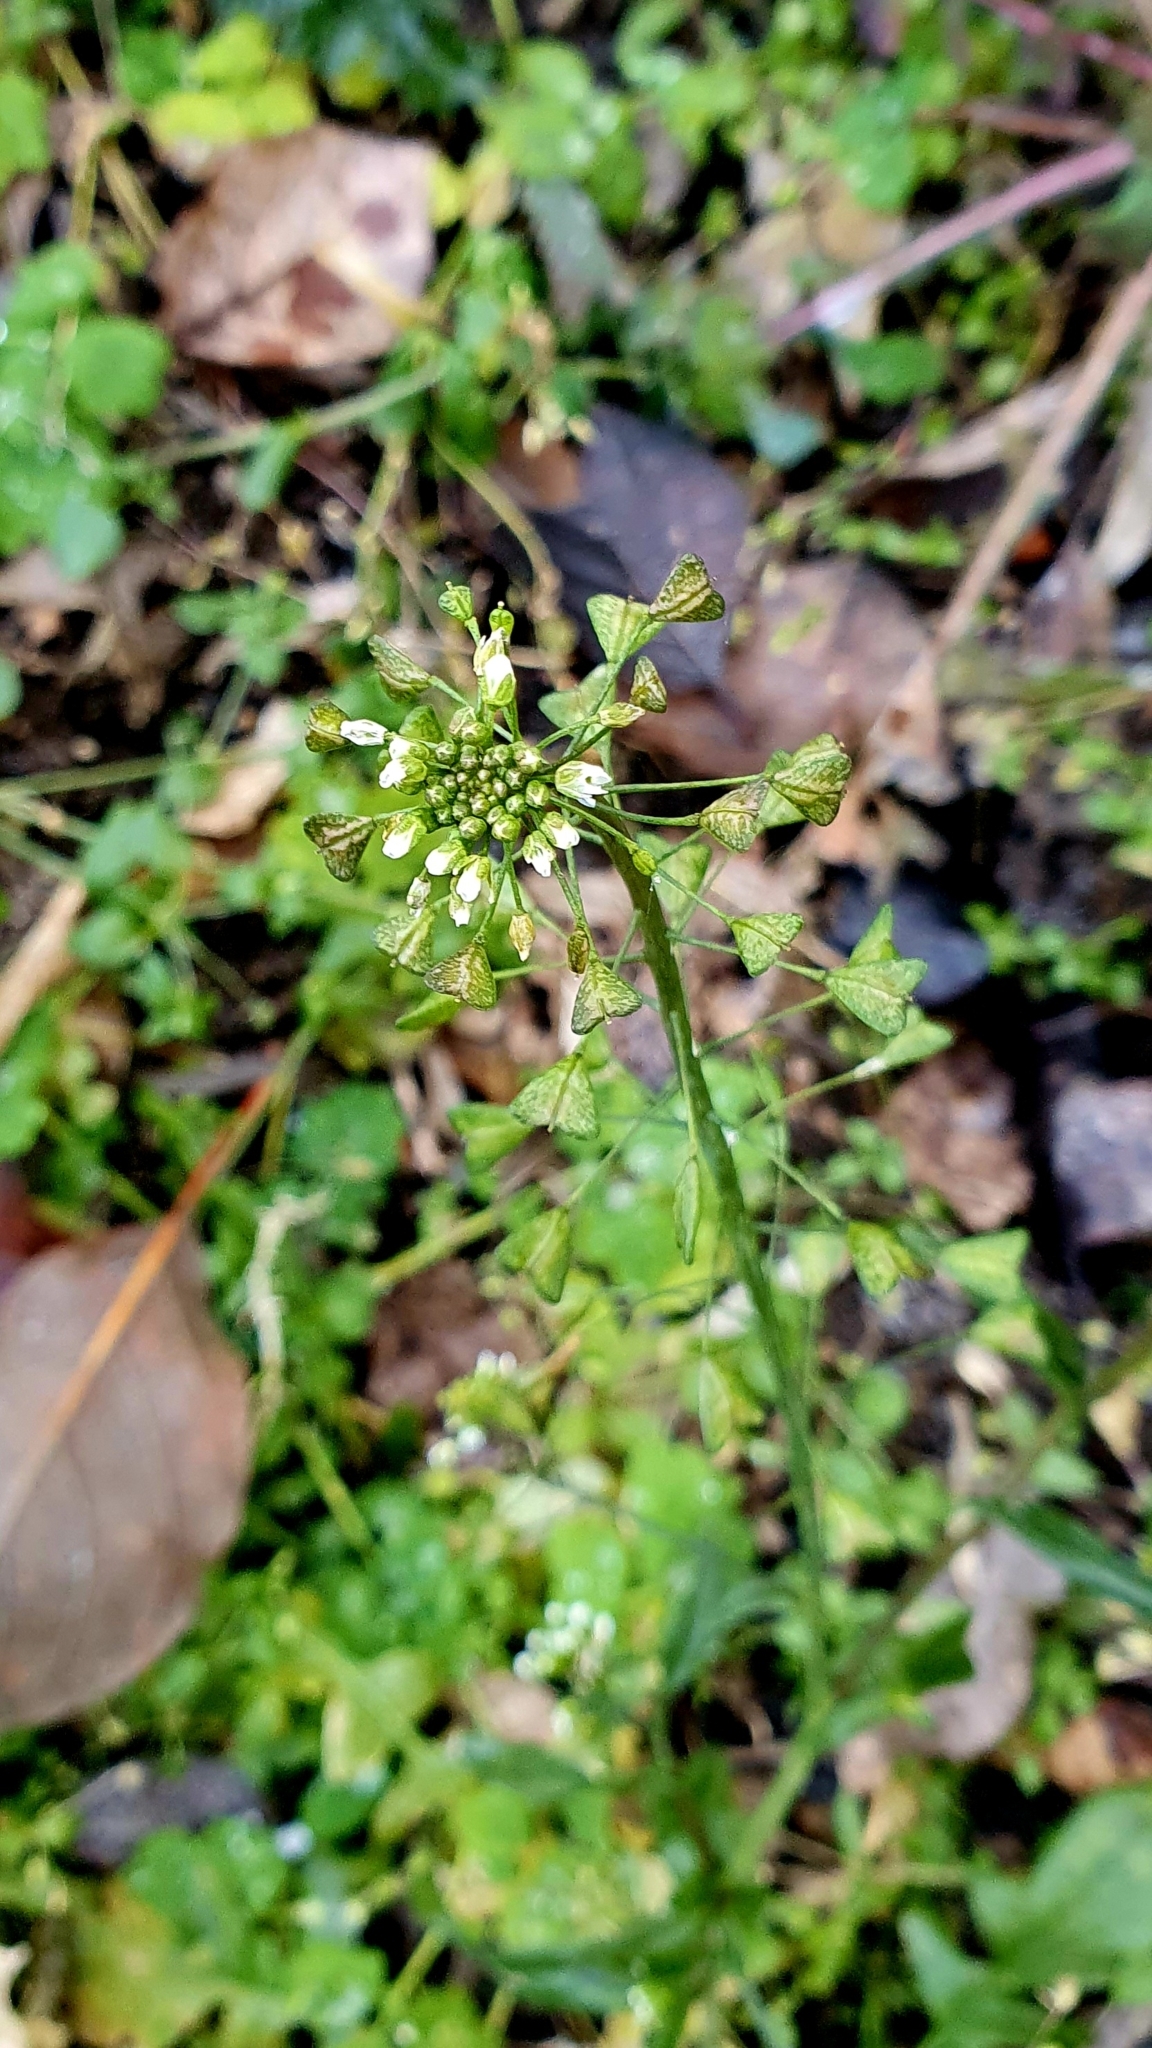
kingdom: Plantae
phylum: Tracheophyta
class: Magnoliopsida
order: Brassicales
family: Brassicaceae
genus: Capsella
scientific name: Capsella bursa-pastoris
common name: Shepherd's purse
